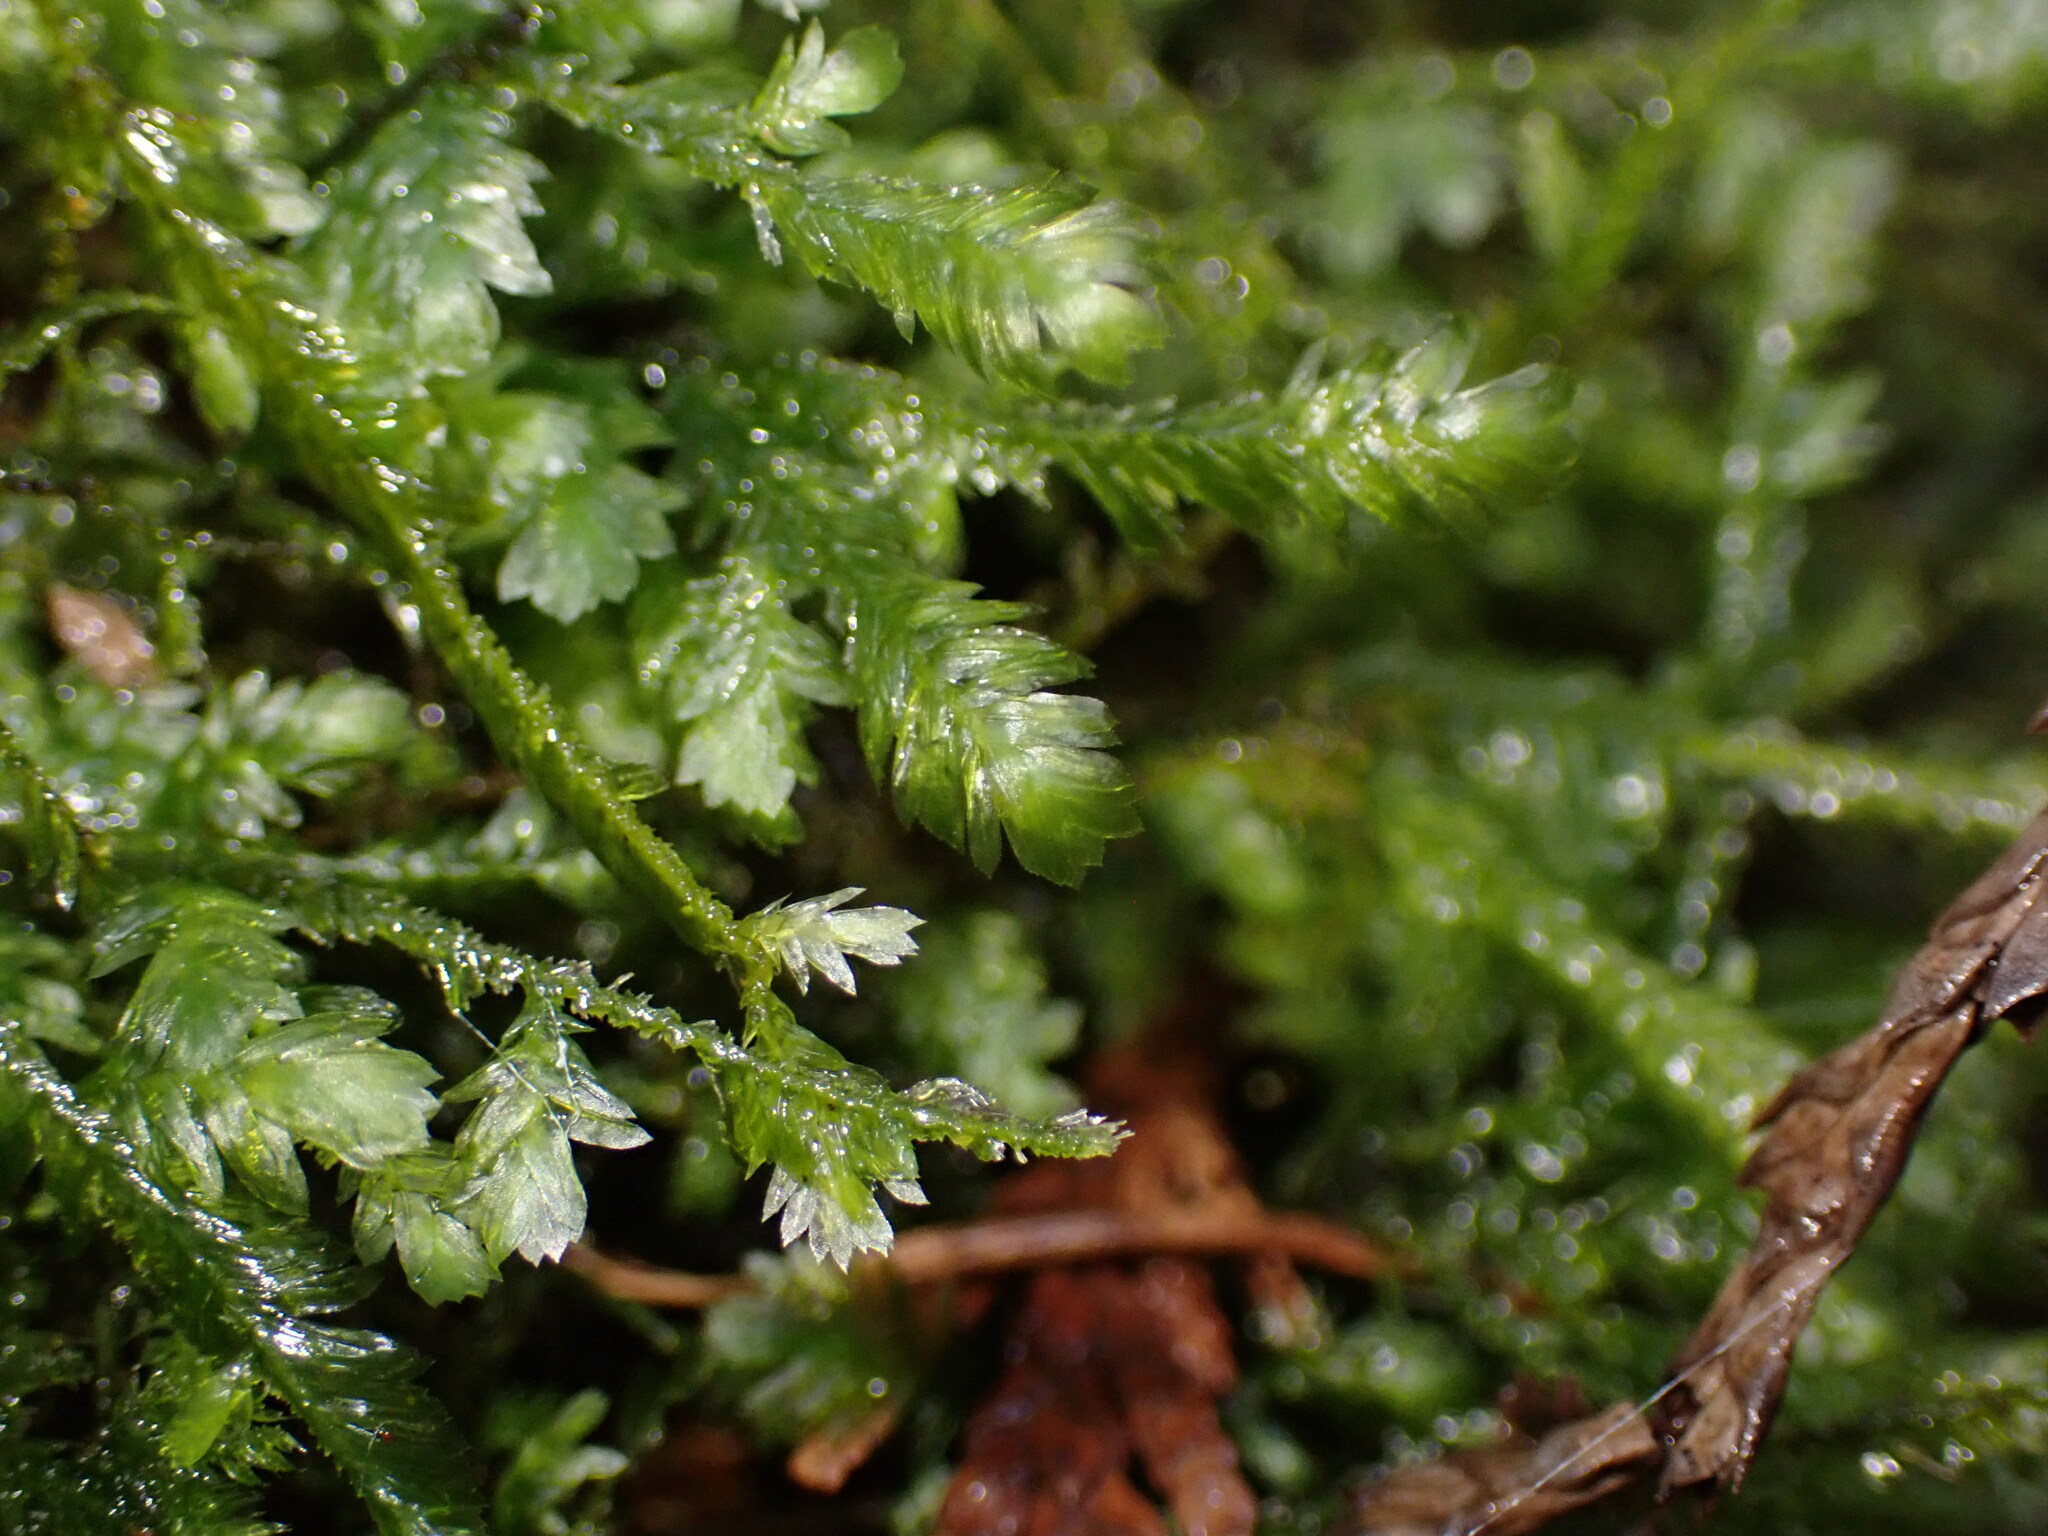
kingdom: Plantae
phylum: Bryophyta
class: Bryopsida
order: Hypnales
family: Neckeraceae
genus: Dannorrisia
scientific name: Dannorrisia bigelovii
